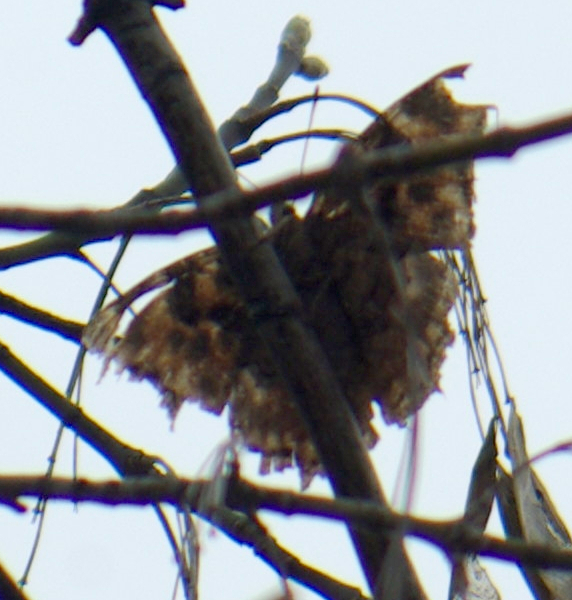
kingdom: Animalia
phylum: Arthropoda
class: Insecta
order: Lepidoptera
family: Nymphalidae
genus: Polygonia
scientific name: Polygonia vaualbum
